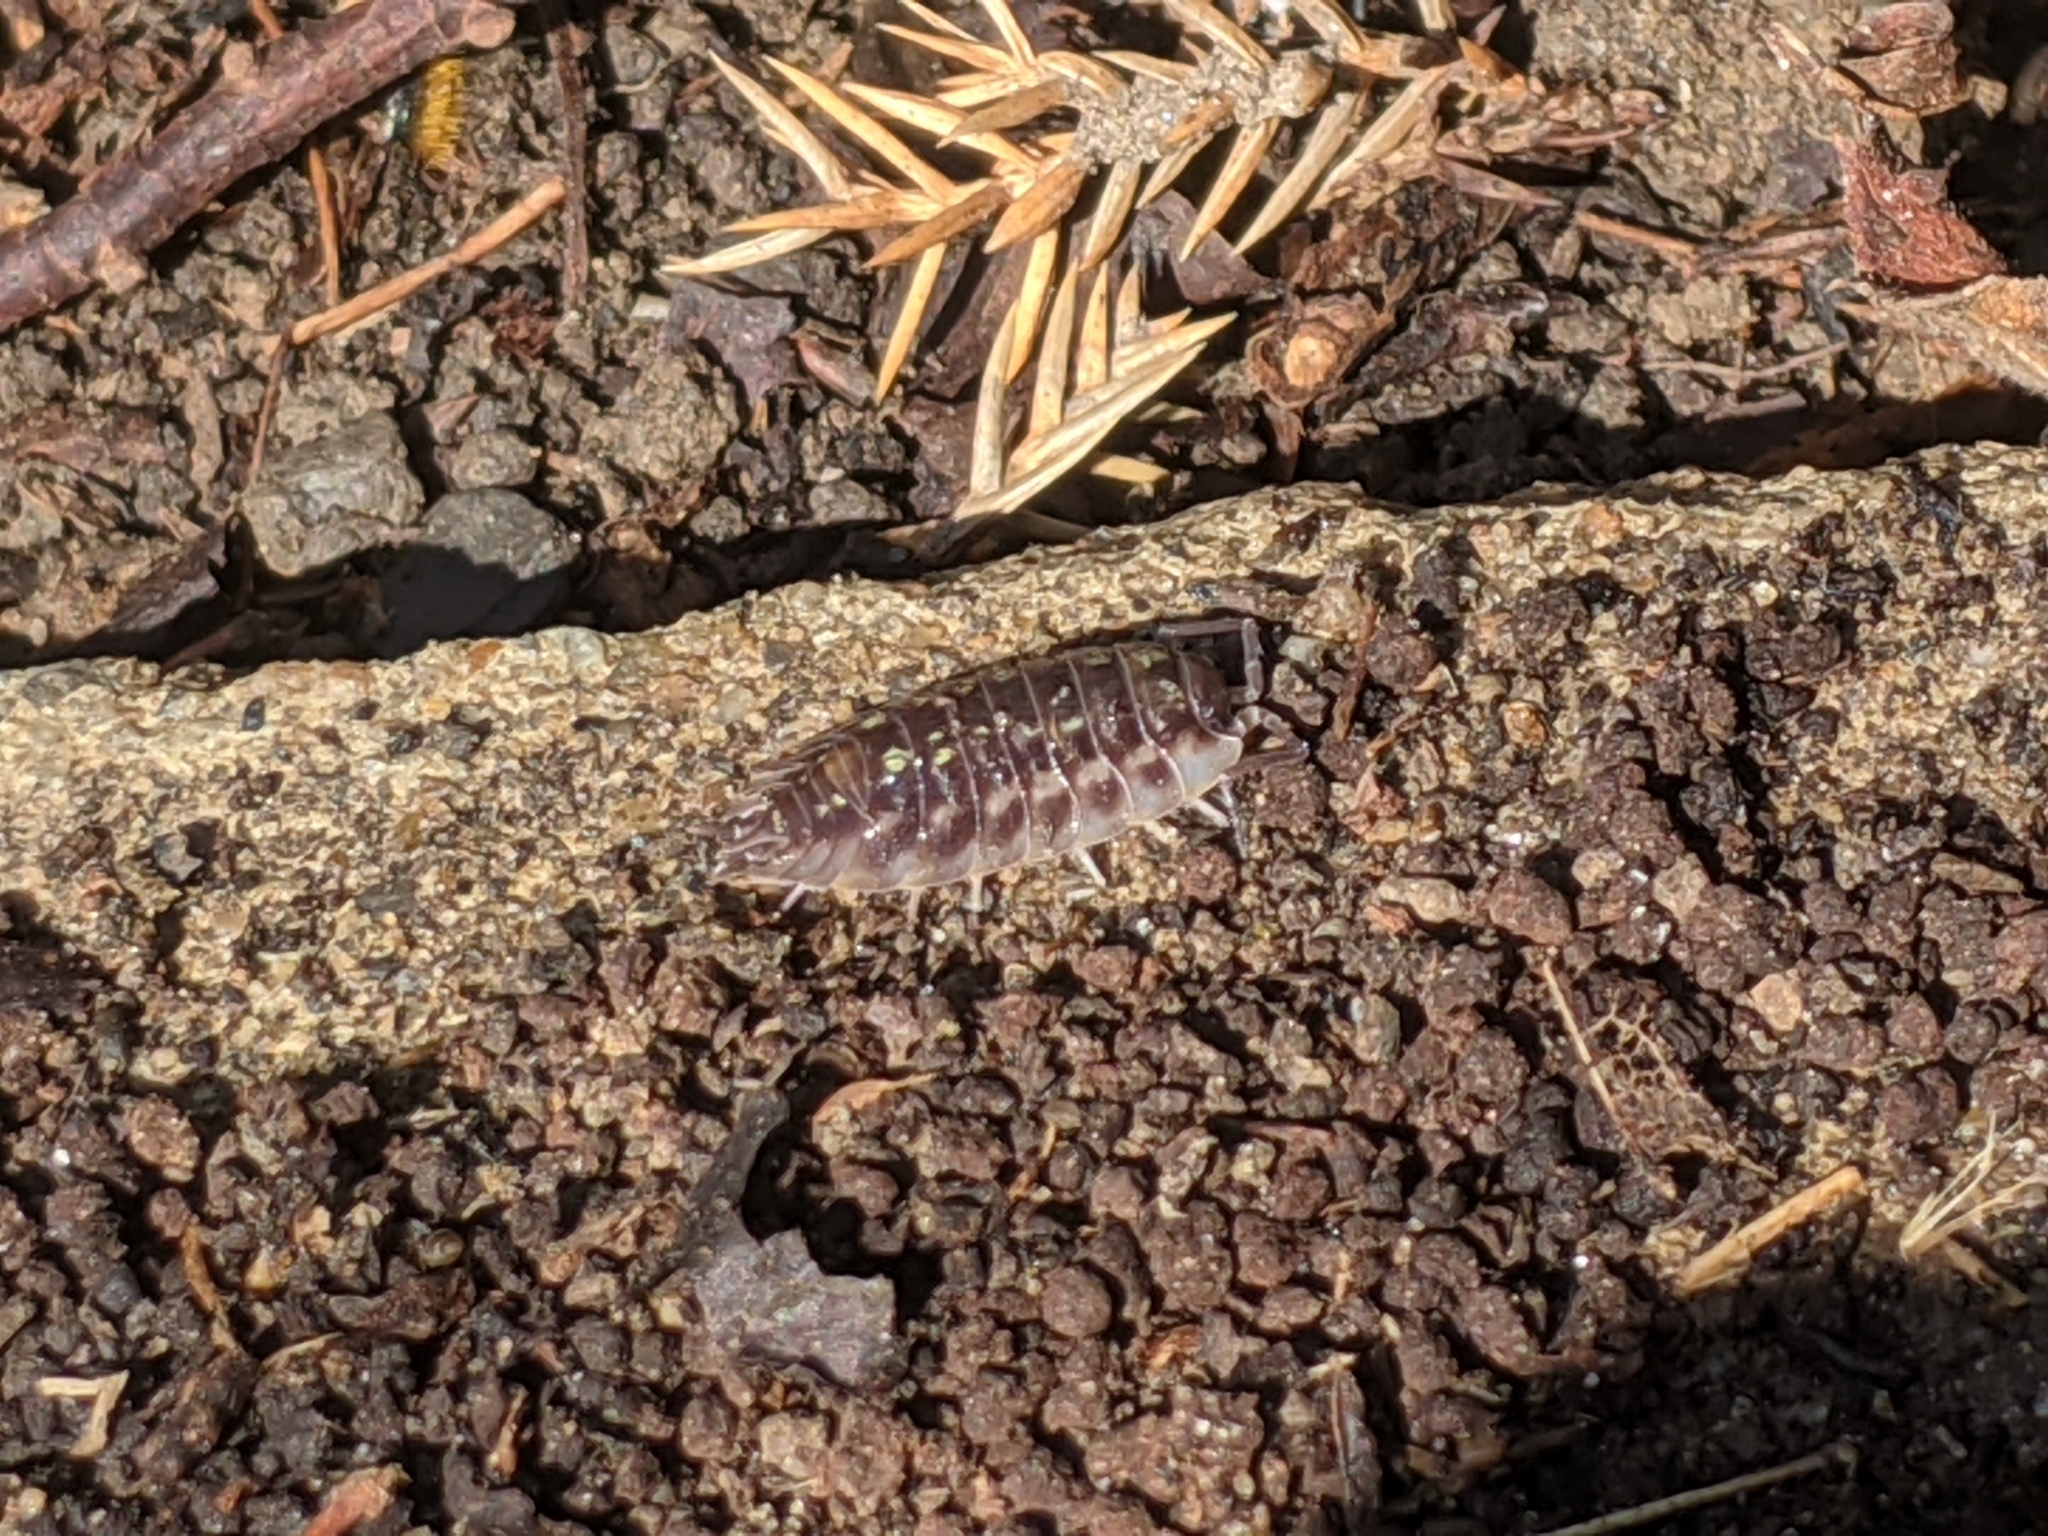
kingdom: Animalia
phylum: Arthropoda
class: Malacostraca
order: Isopoda
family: Oniscidae
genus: Oniscus
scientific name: Oniscus asellus
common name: Common shiny woodlouse
